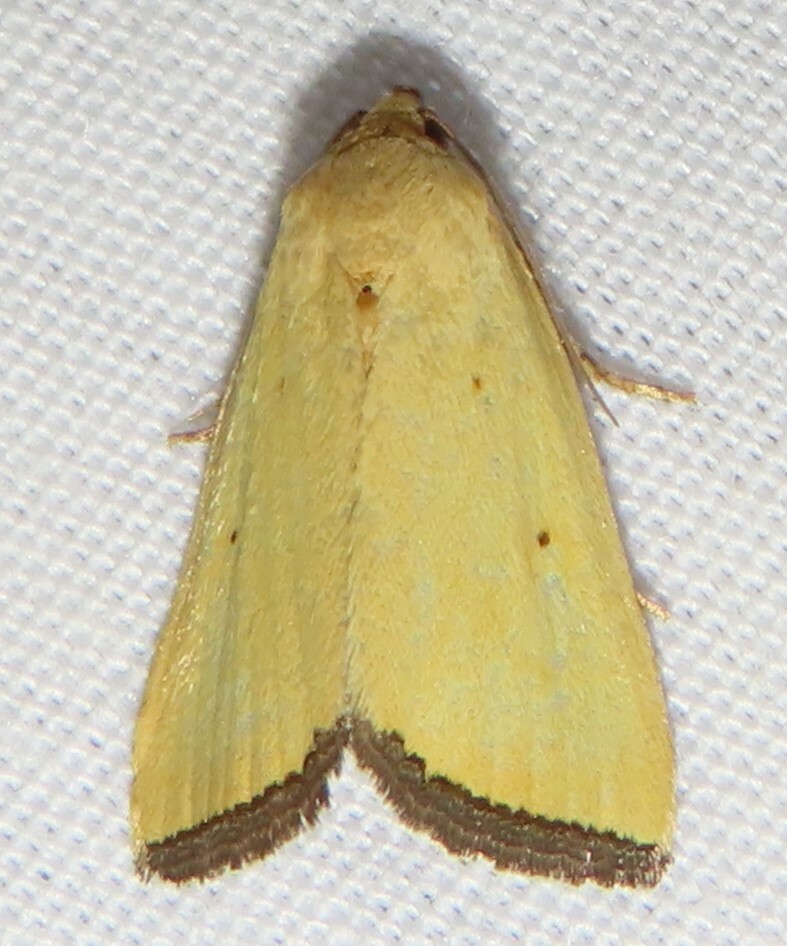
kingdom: Animalia
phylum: Arthropoda
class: Insecta
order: Lepidoptera
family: Noctuidae
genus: Marimatha
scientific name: Marimatha nigrofimbria
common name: Black-bordered lemon moth
